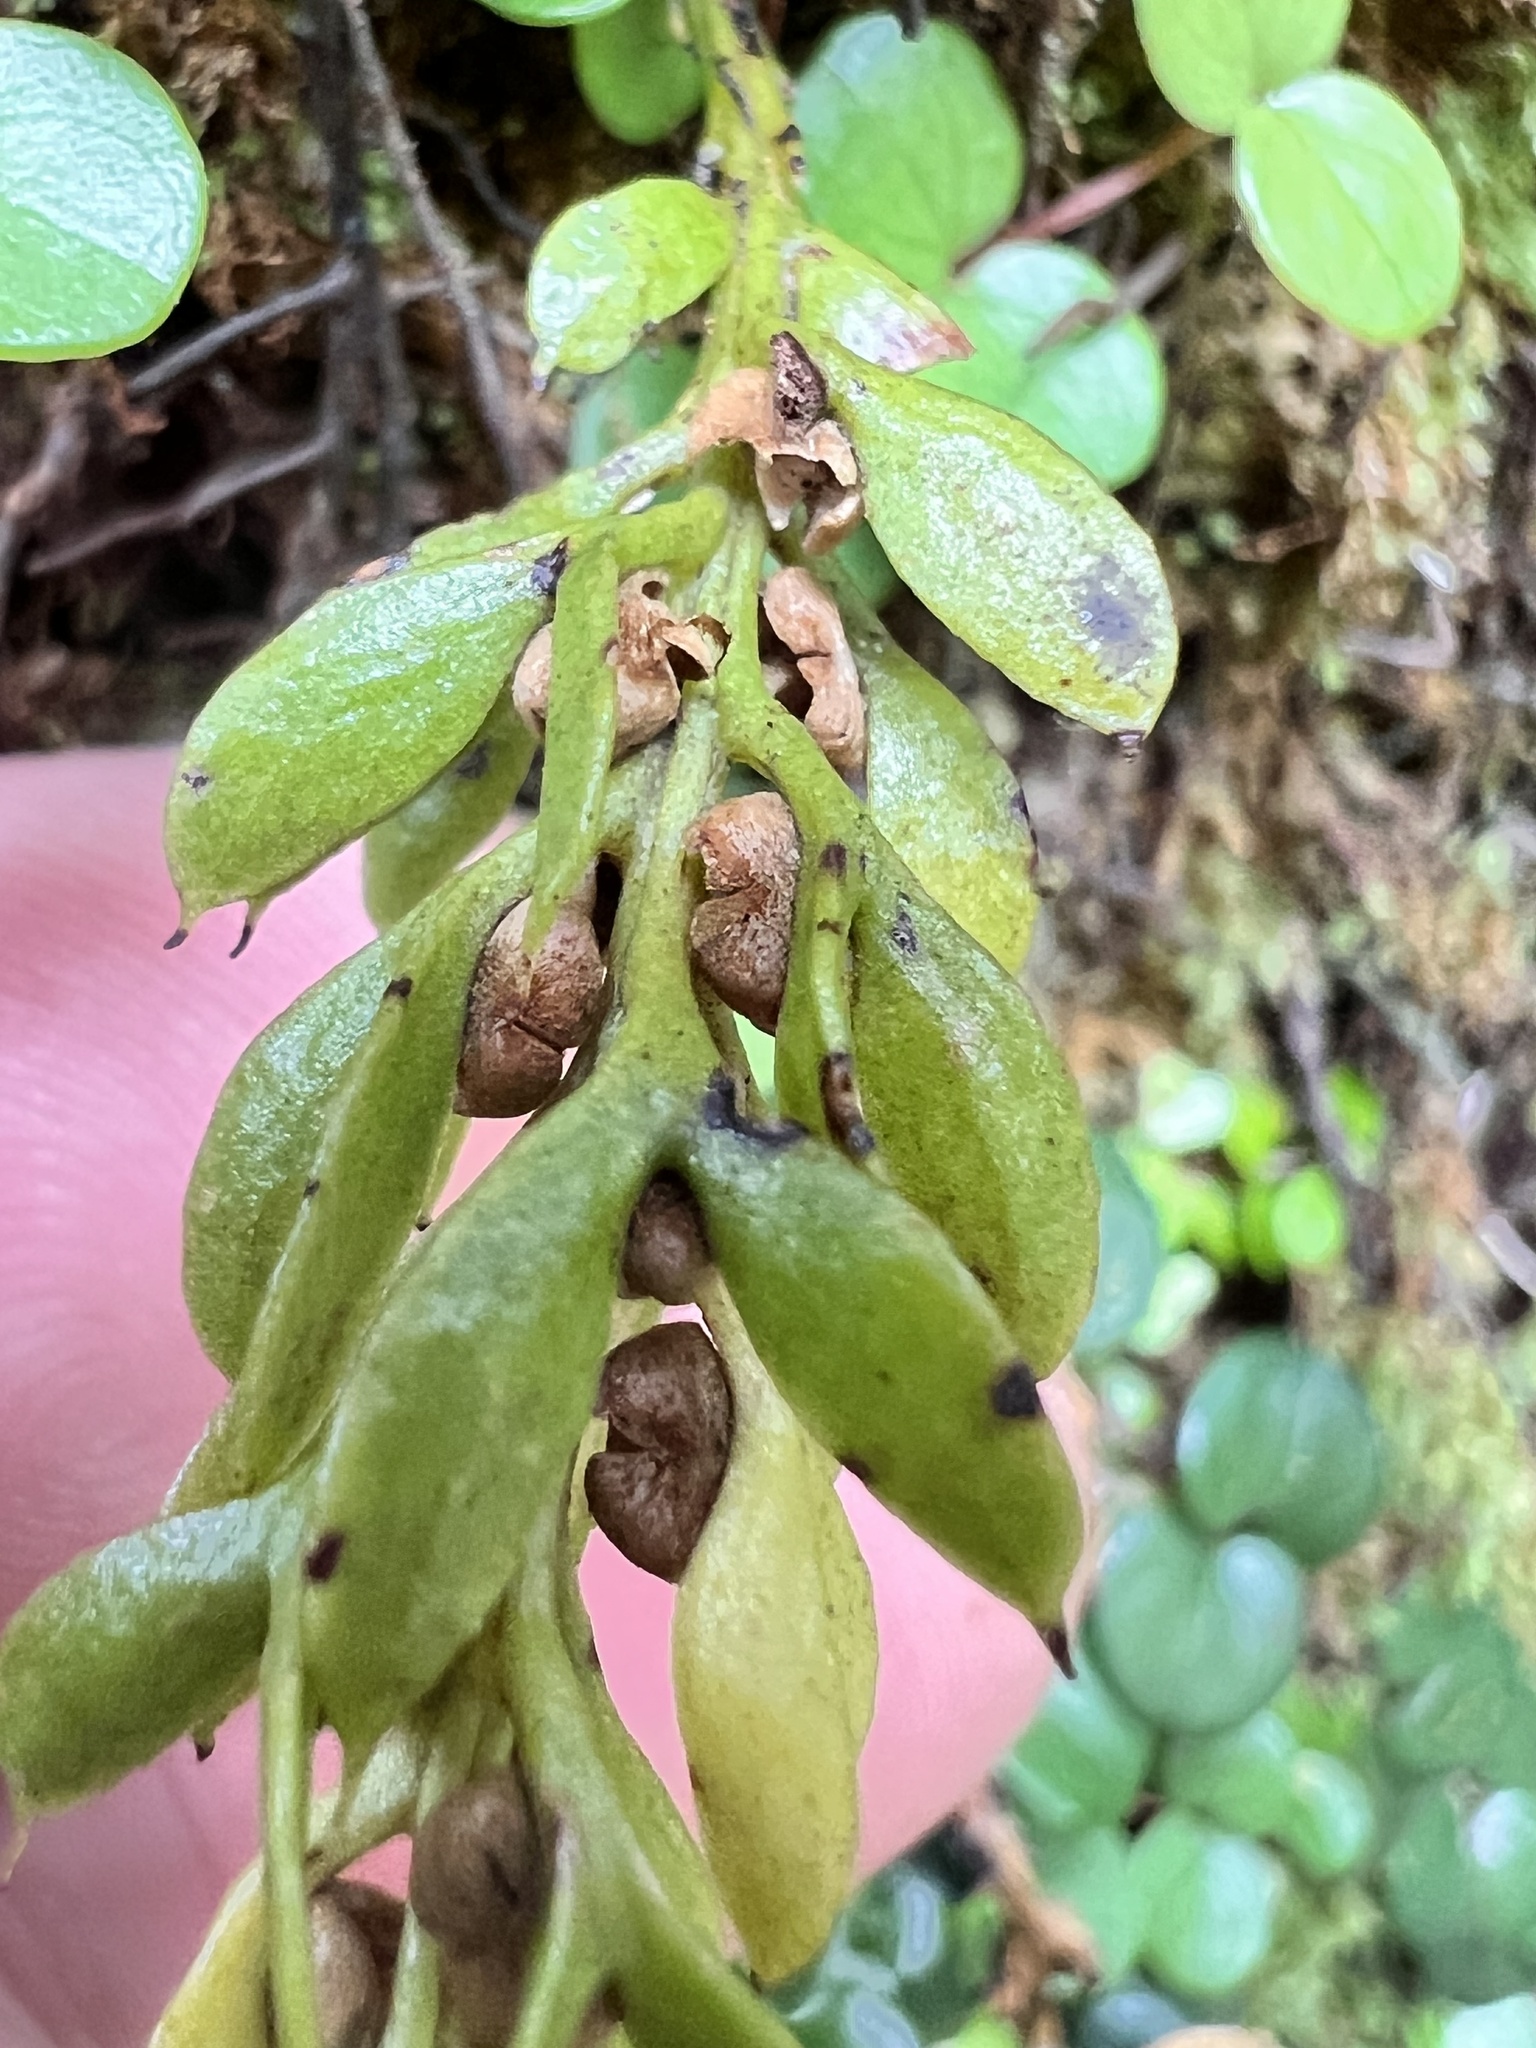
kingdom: Plantae
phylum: Tracheophyta
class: Polypodiopsida
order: Psilotales
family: Psilotaceae
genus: Tmesipteris
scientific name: Tmesipteris lanceolata
